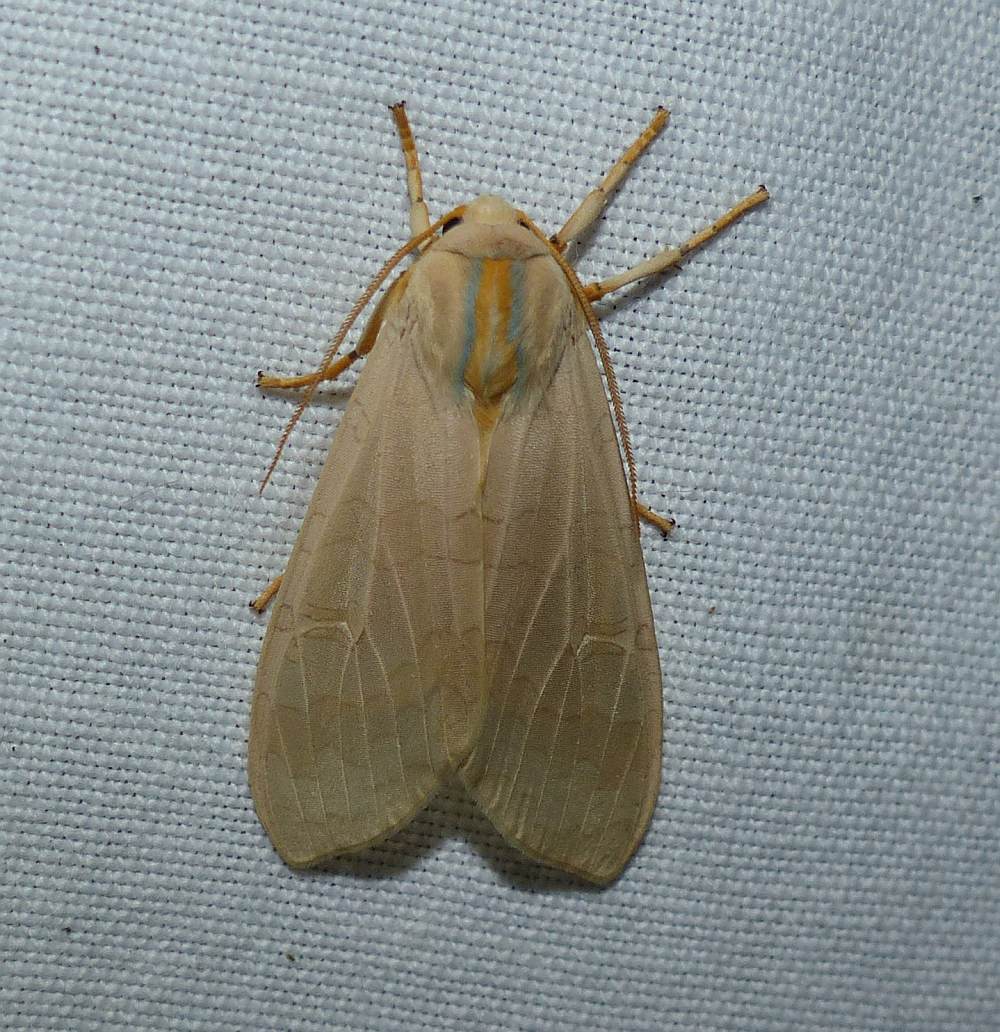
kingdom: Animalia
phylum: Arthropoda
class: Insecta
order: Lepidoptera
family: Erebidae
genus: Halysidota
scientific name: Halysidota tessellaris
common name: Banded tussock moth
